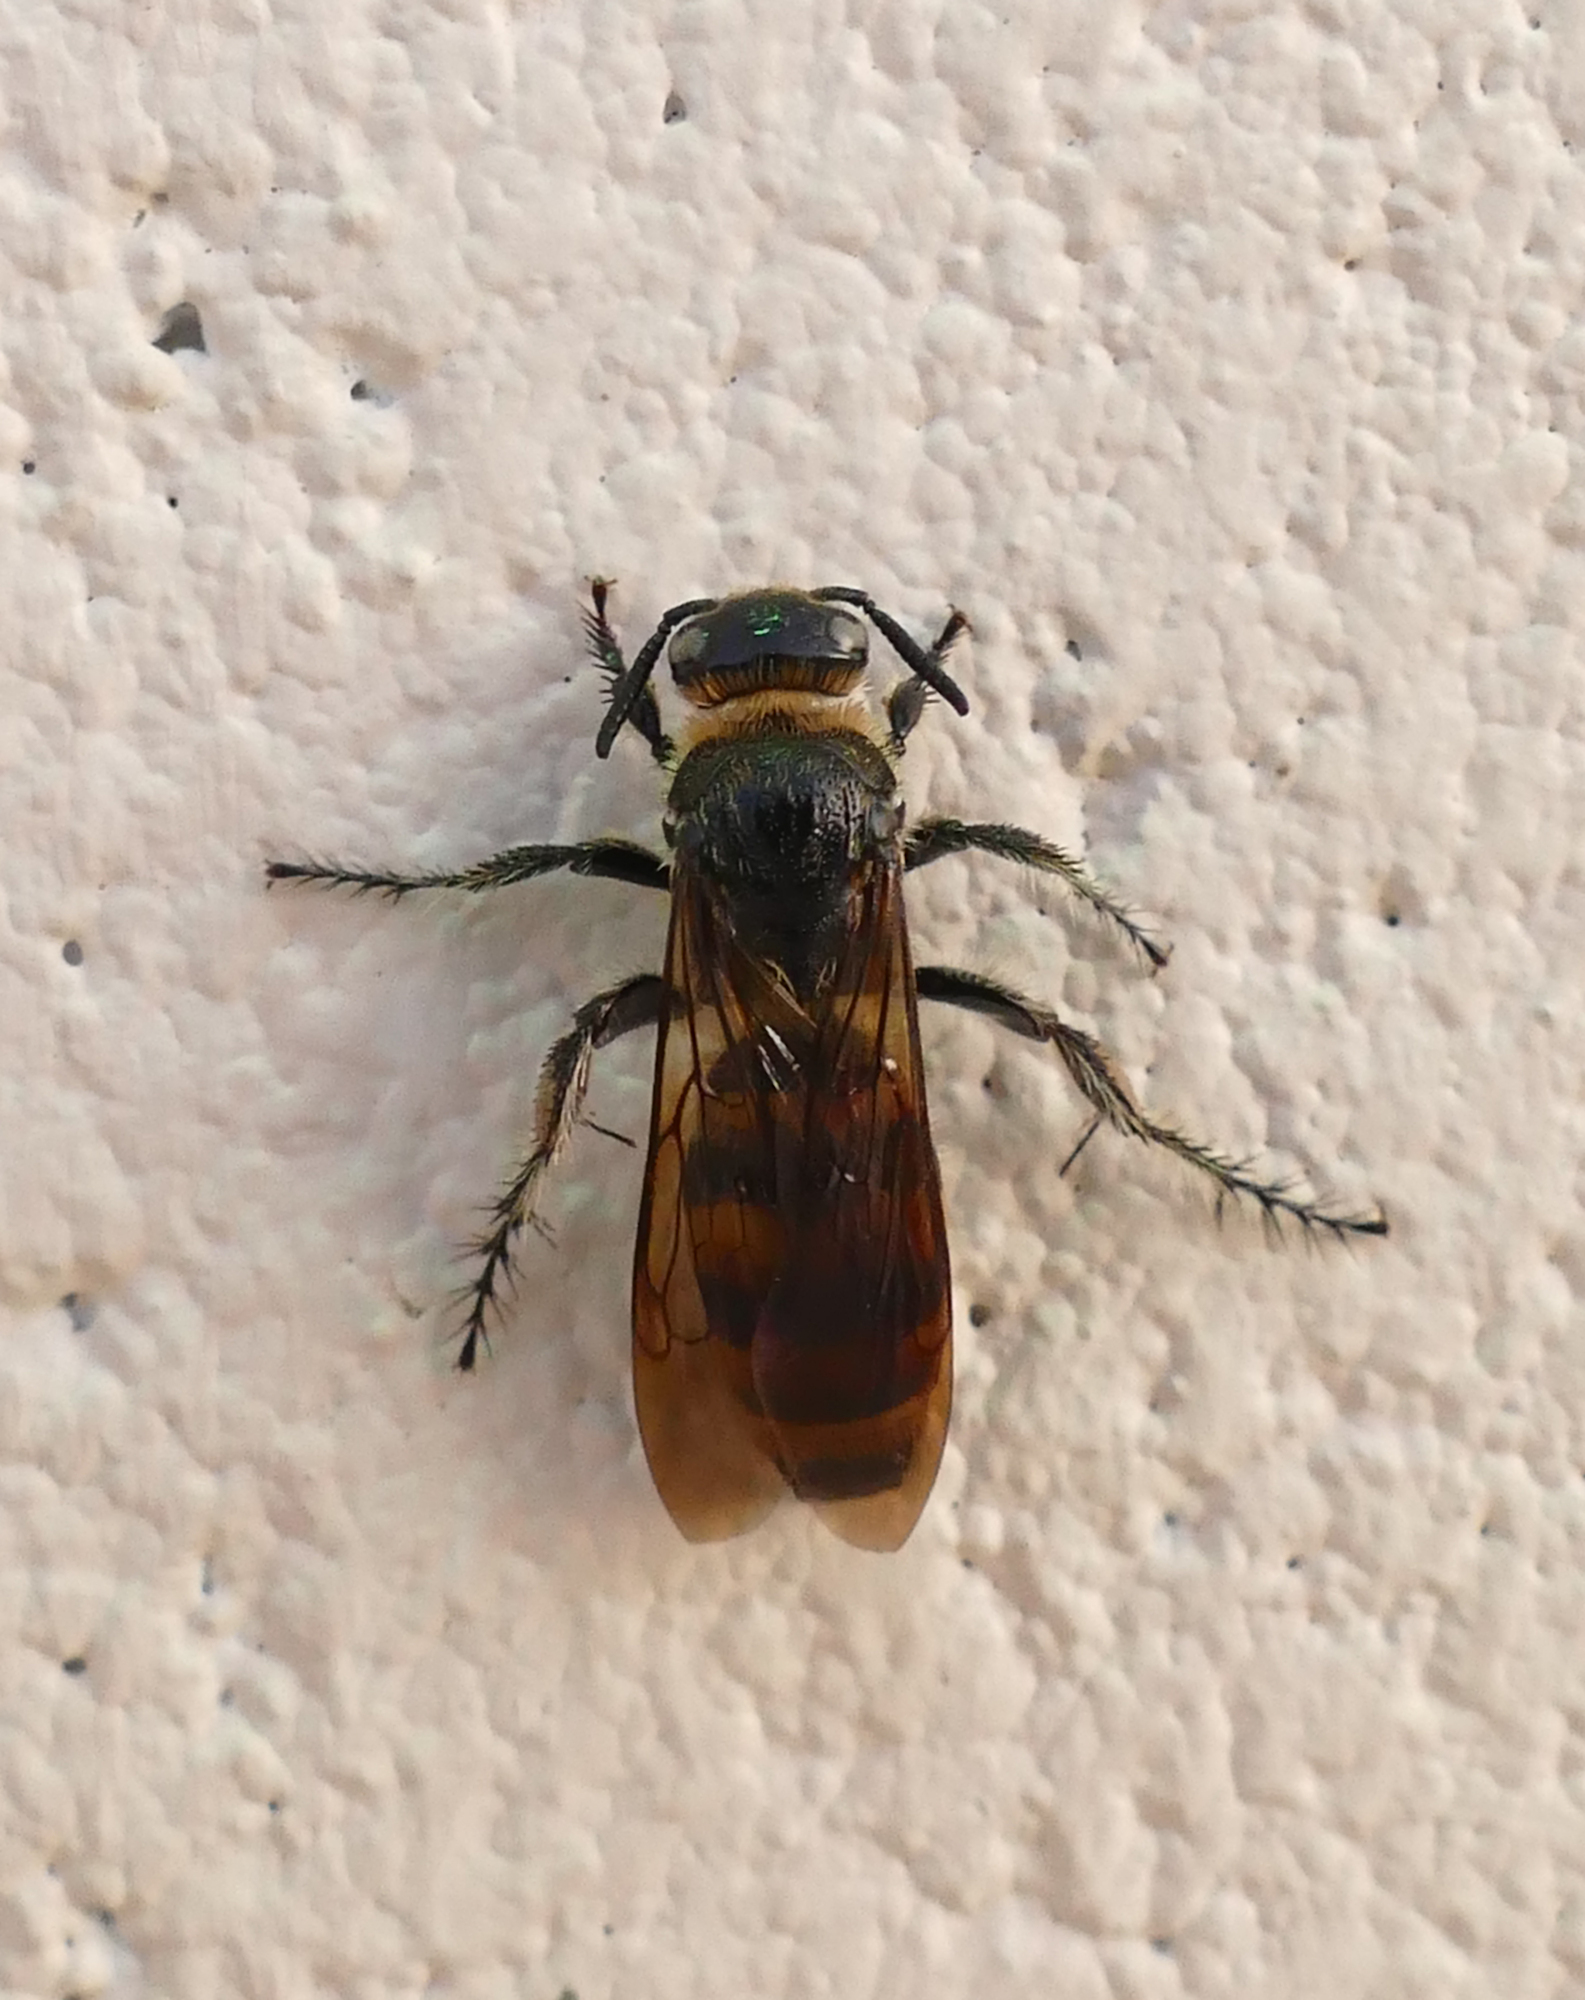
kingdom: Animalia
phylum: Arthropoda
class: Insecta
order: Hymenoptera
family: Scoliidae
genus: Dielis
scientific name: Dielis
